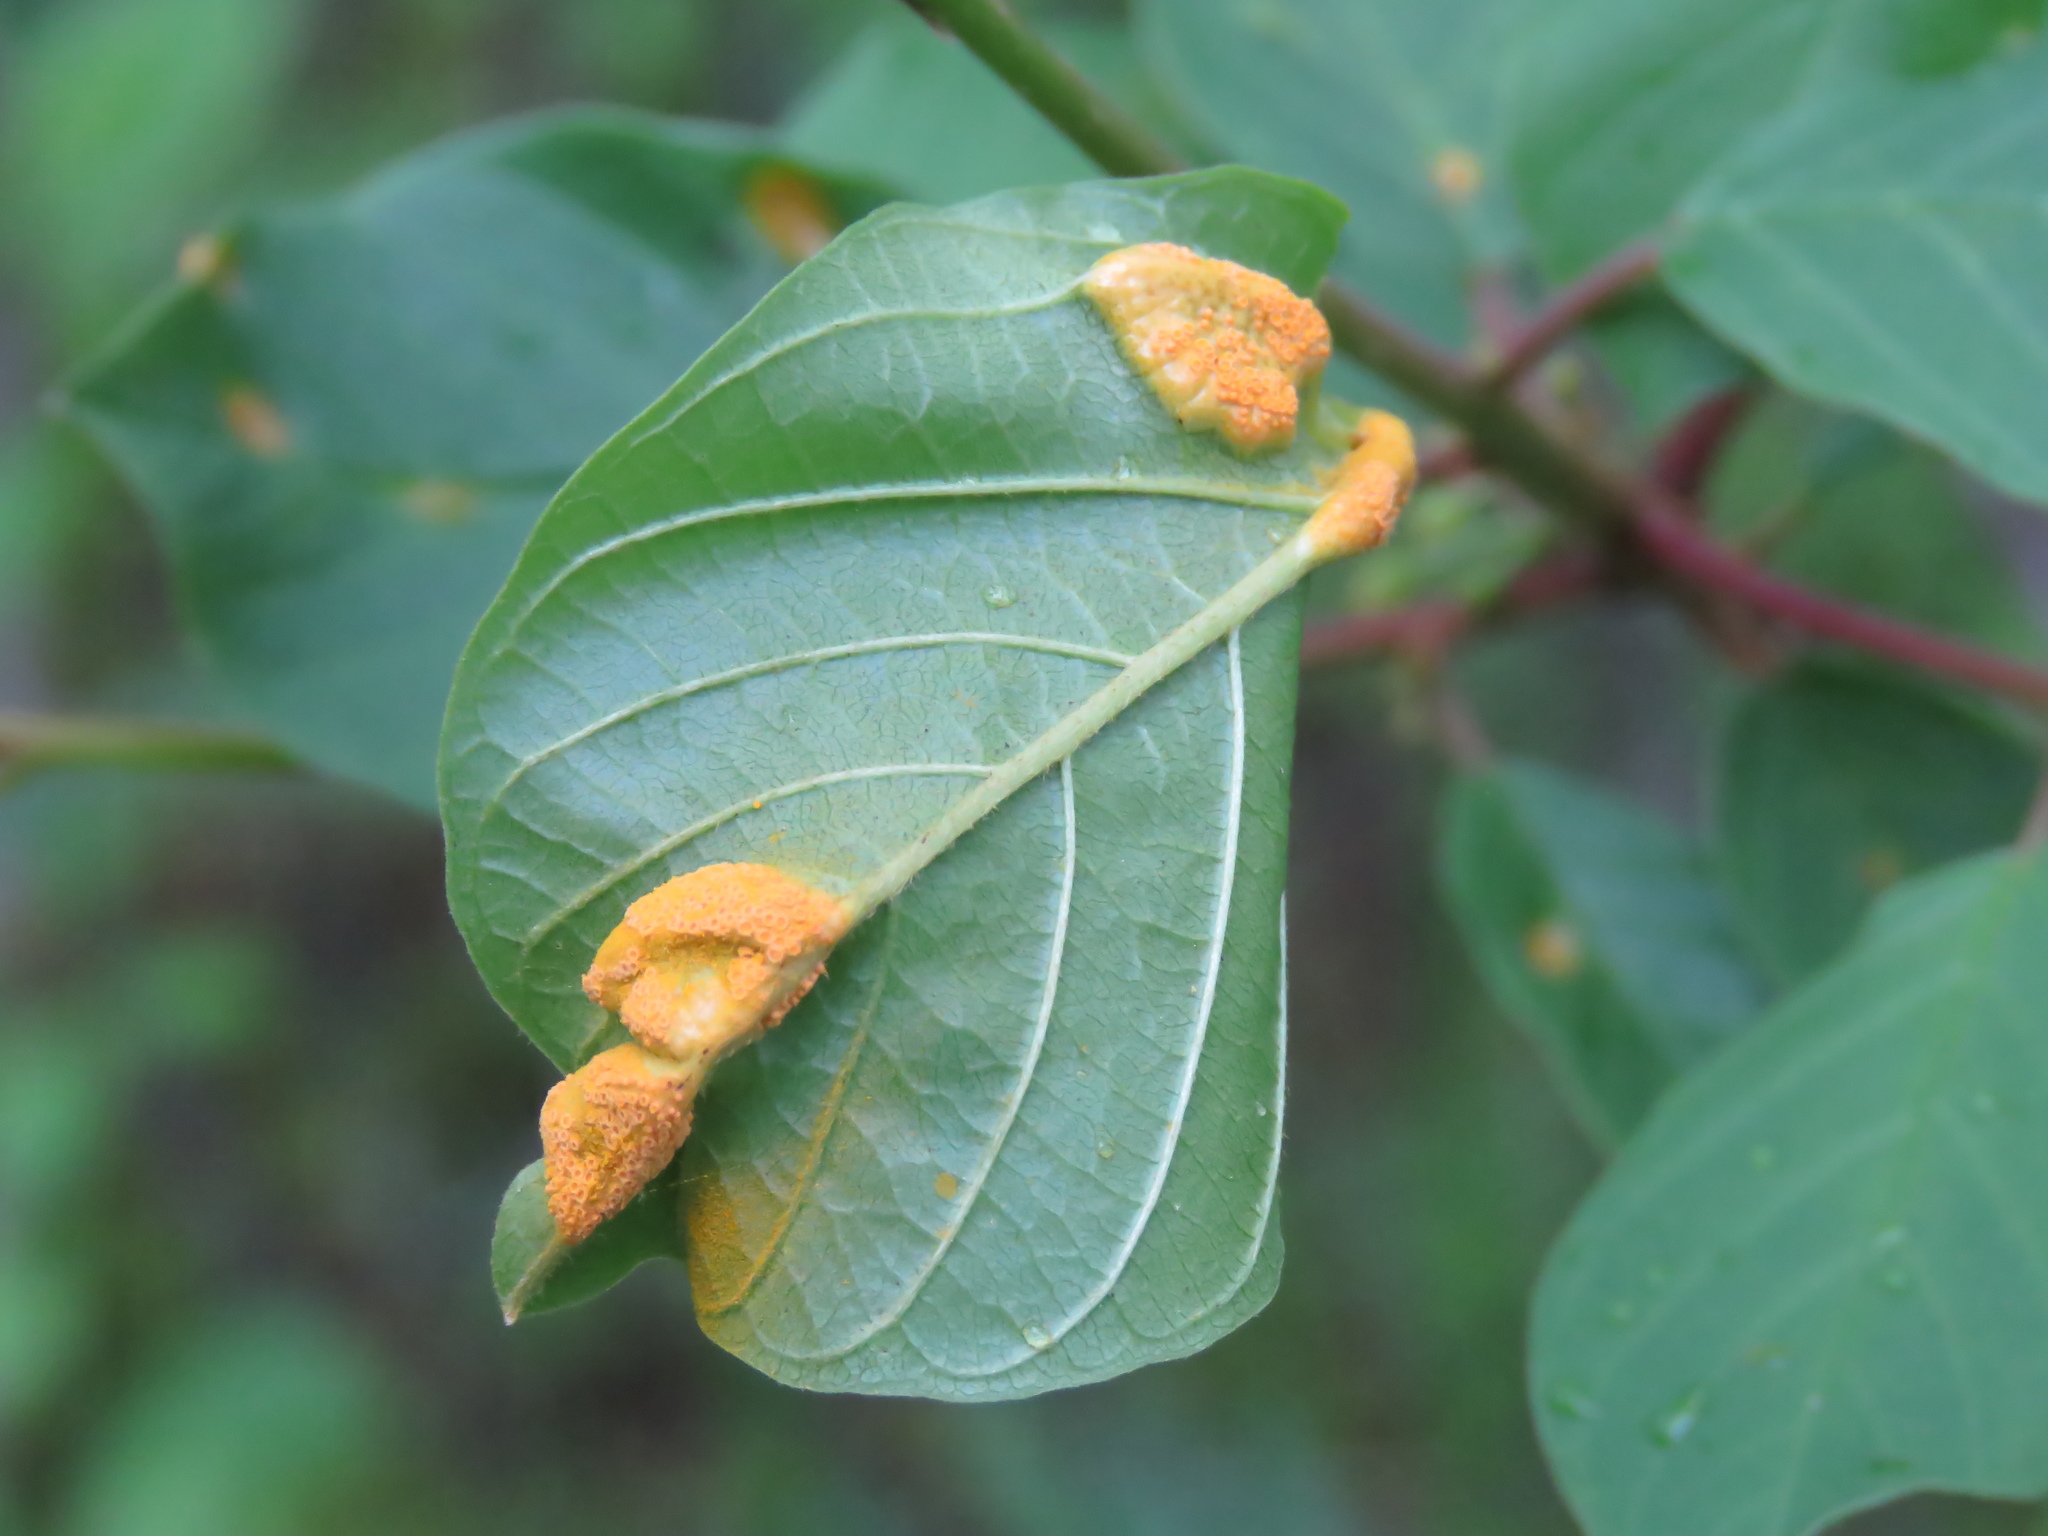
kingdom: Fungi
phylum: Basidiomycota
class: Pucciniomycetes
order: Pucciniales
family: Pucciniaceae
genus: Puccinia
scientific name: Puccinia coronata
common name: Crown rust
